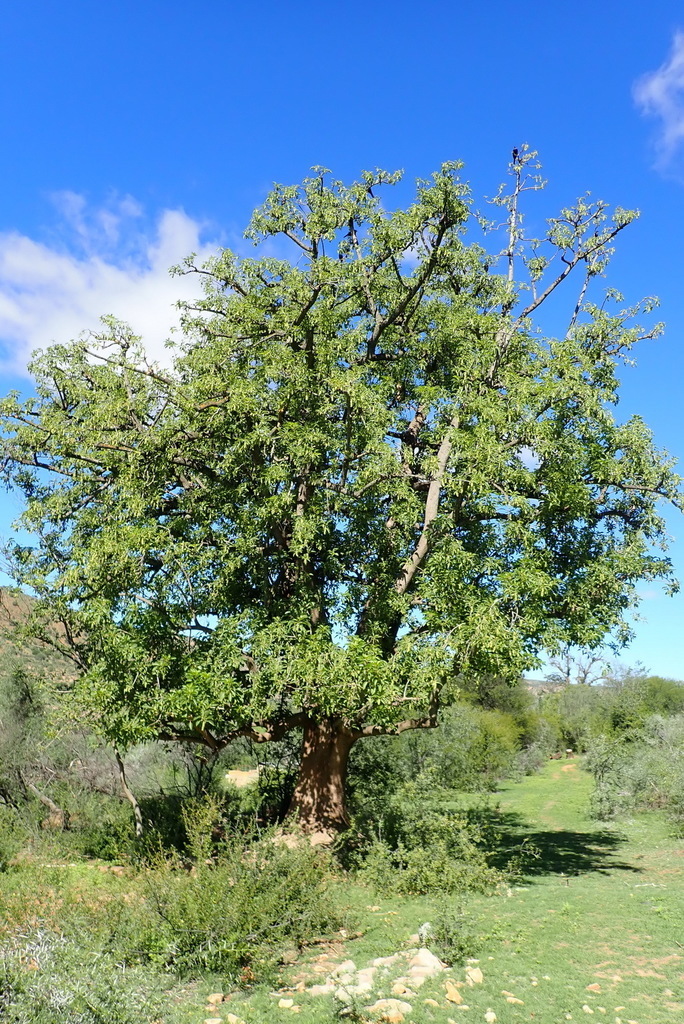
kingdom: Plantae
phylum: Tracheophyta
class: Magnoliopsida
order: Caryophyllales
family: Phytolaccaceae
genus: Phytolacca
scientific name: Phytolacca dioica
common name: Pokeweed
